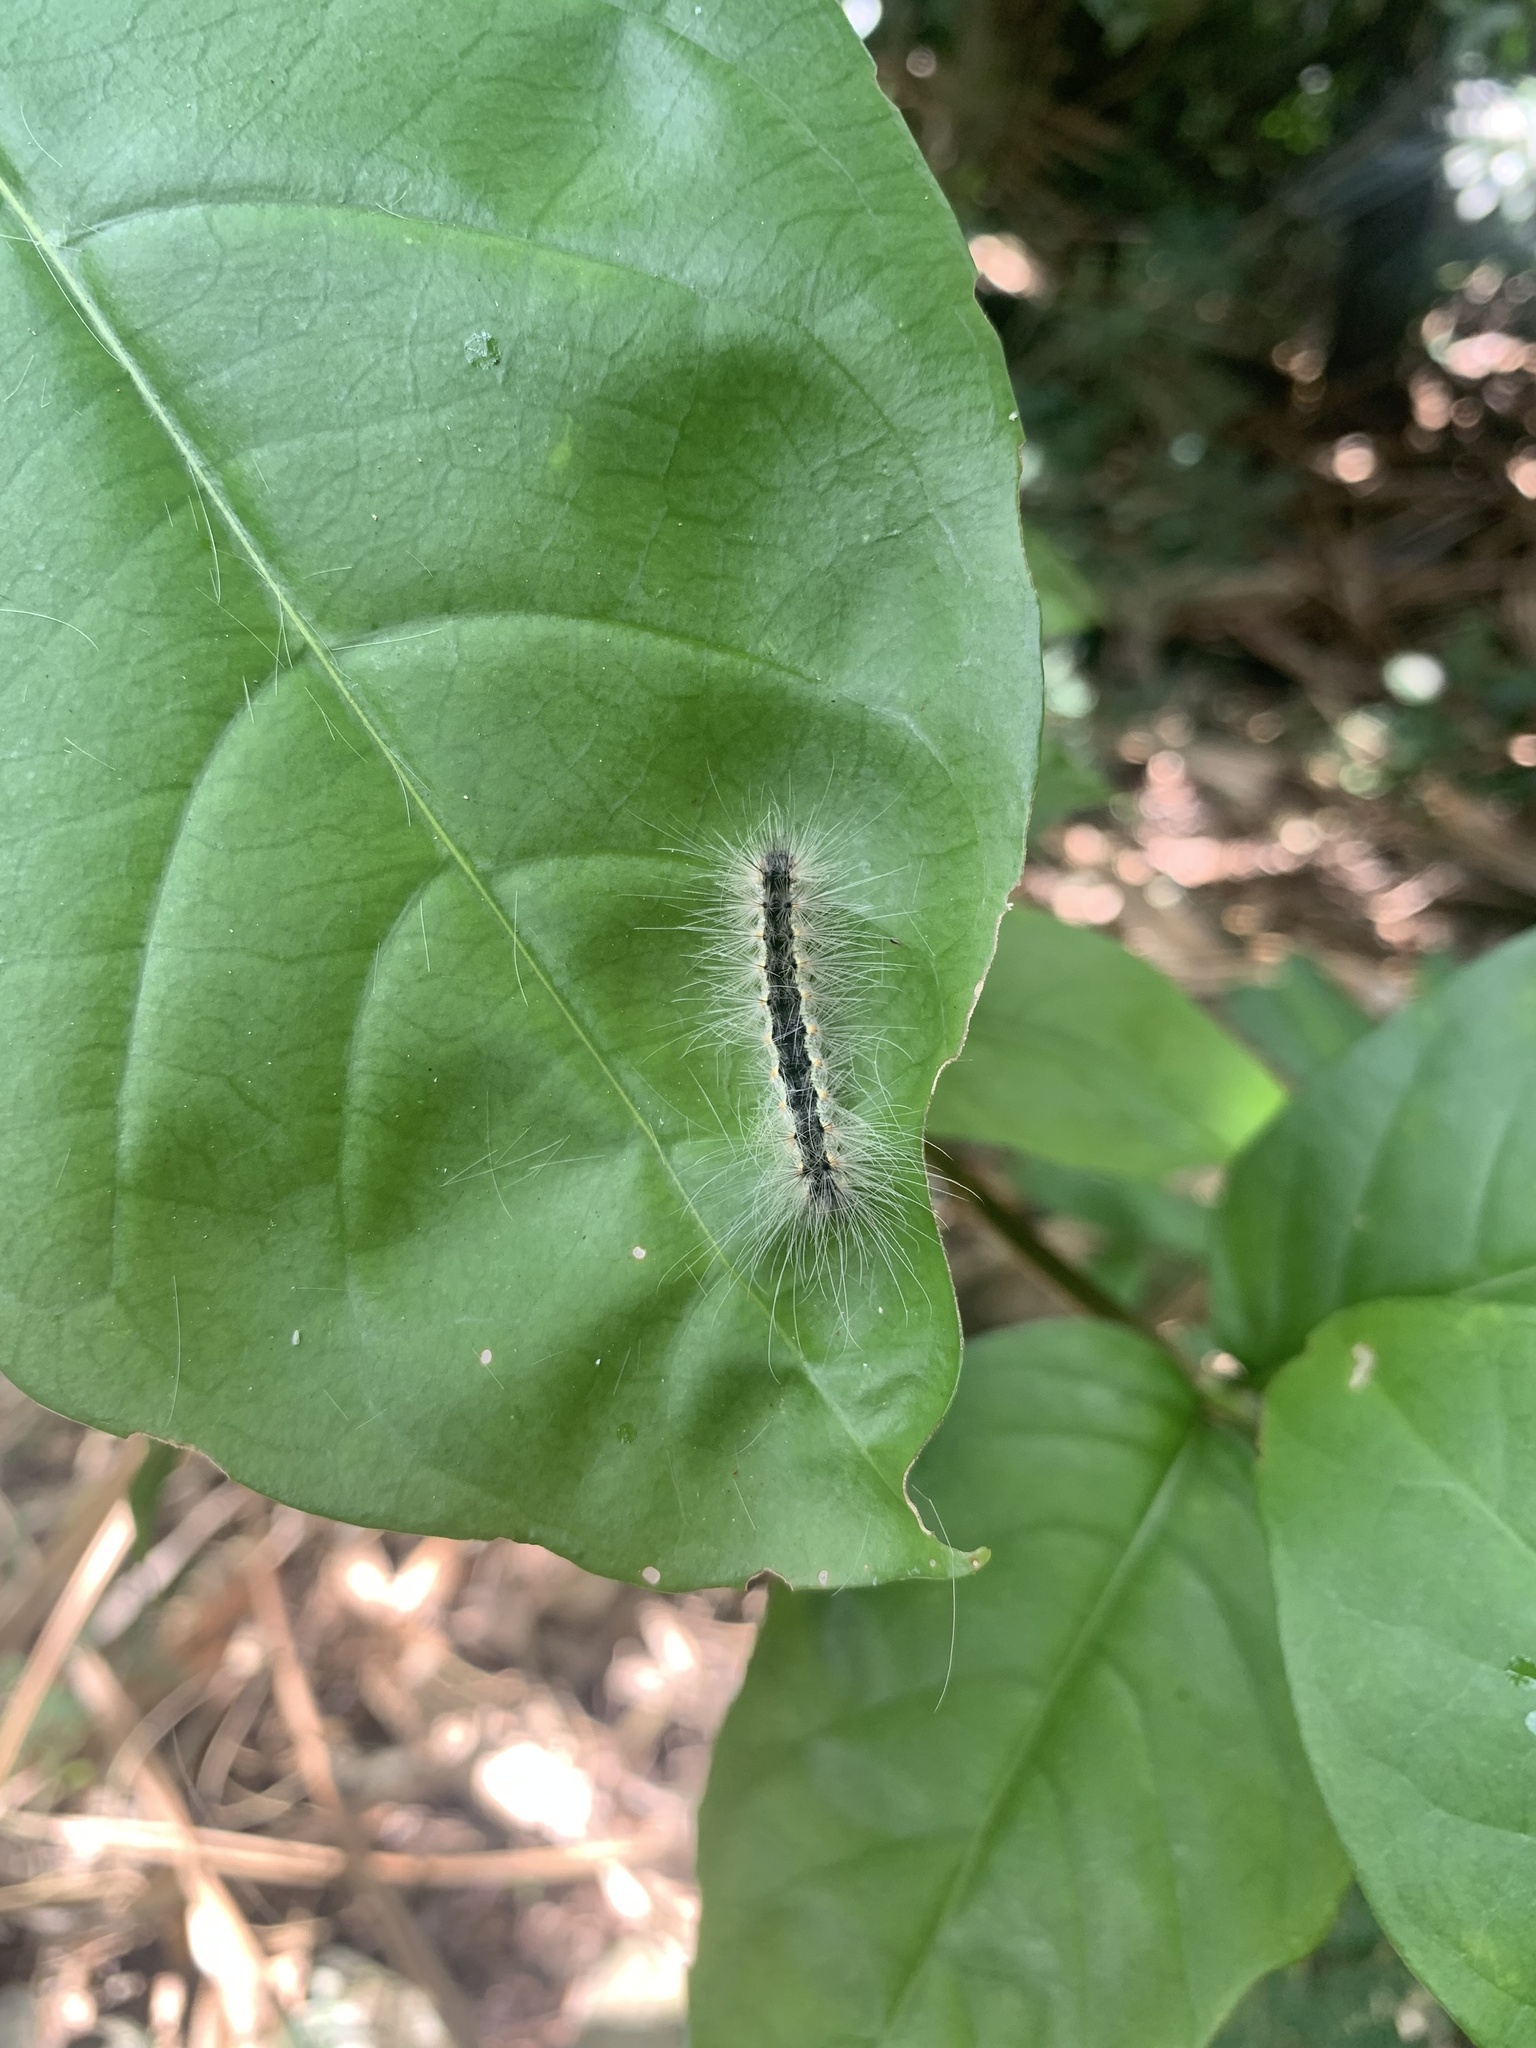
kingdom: Animalia
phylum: Arthropoda
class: Insecta
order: Lepidoptera
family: Erebidae
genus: Hyphantria
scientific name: Hyphantria cunea
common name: American white moth
